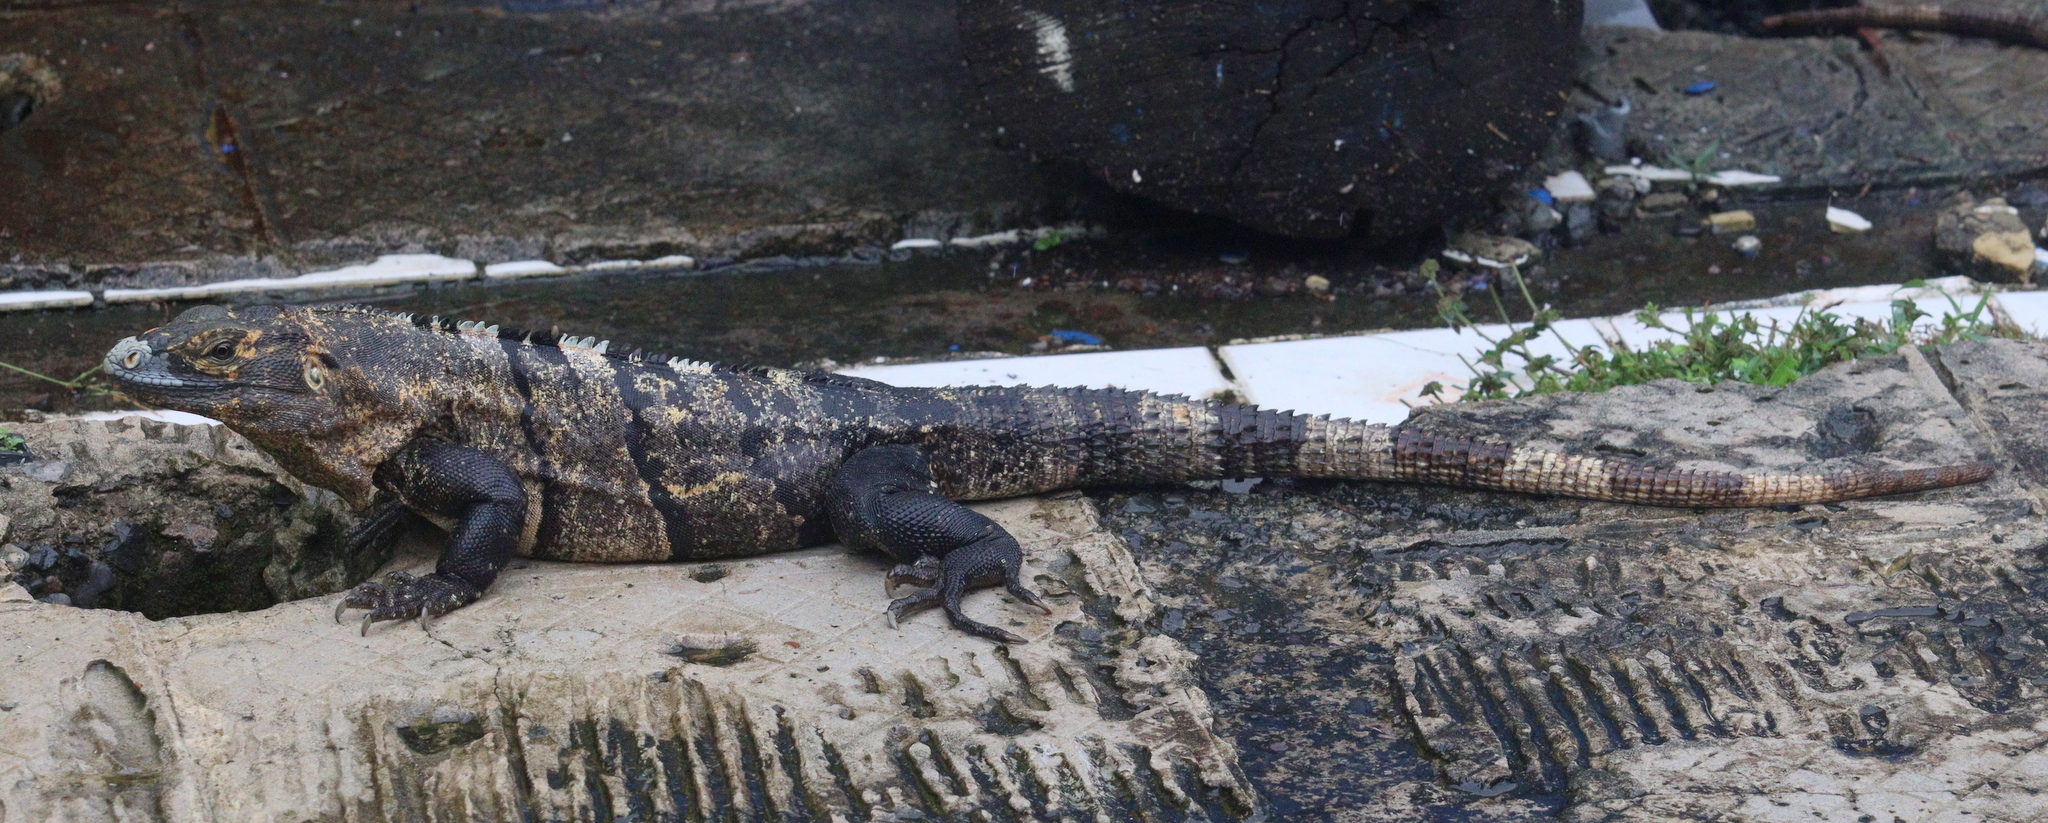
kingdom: Animalia
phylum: Chordata
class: Squamata
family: Iguanidae
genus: Ctenosaura
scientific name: Ctenosaura similis
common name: Black spiny-tailed iguana
